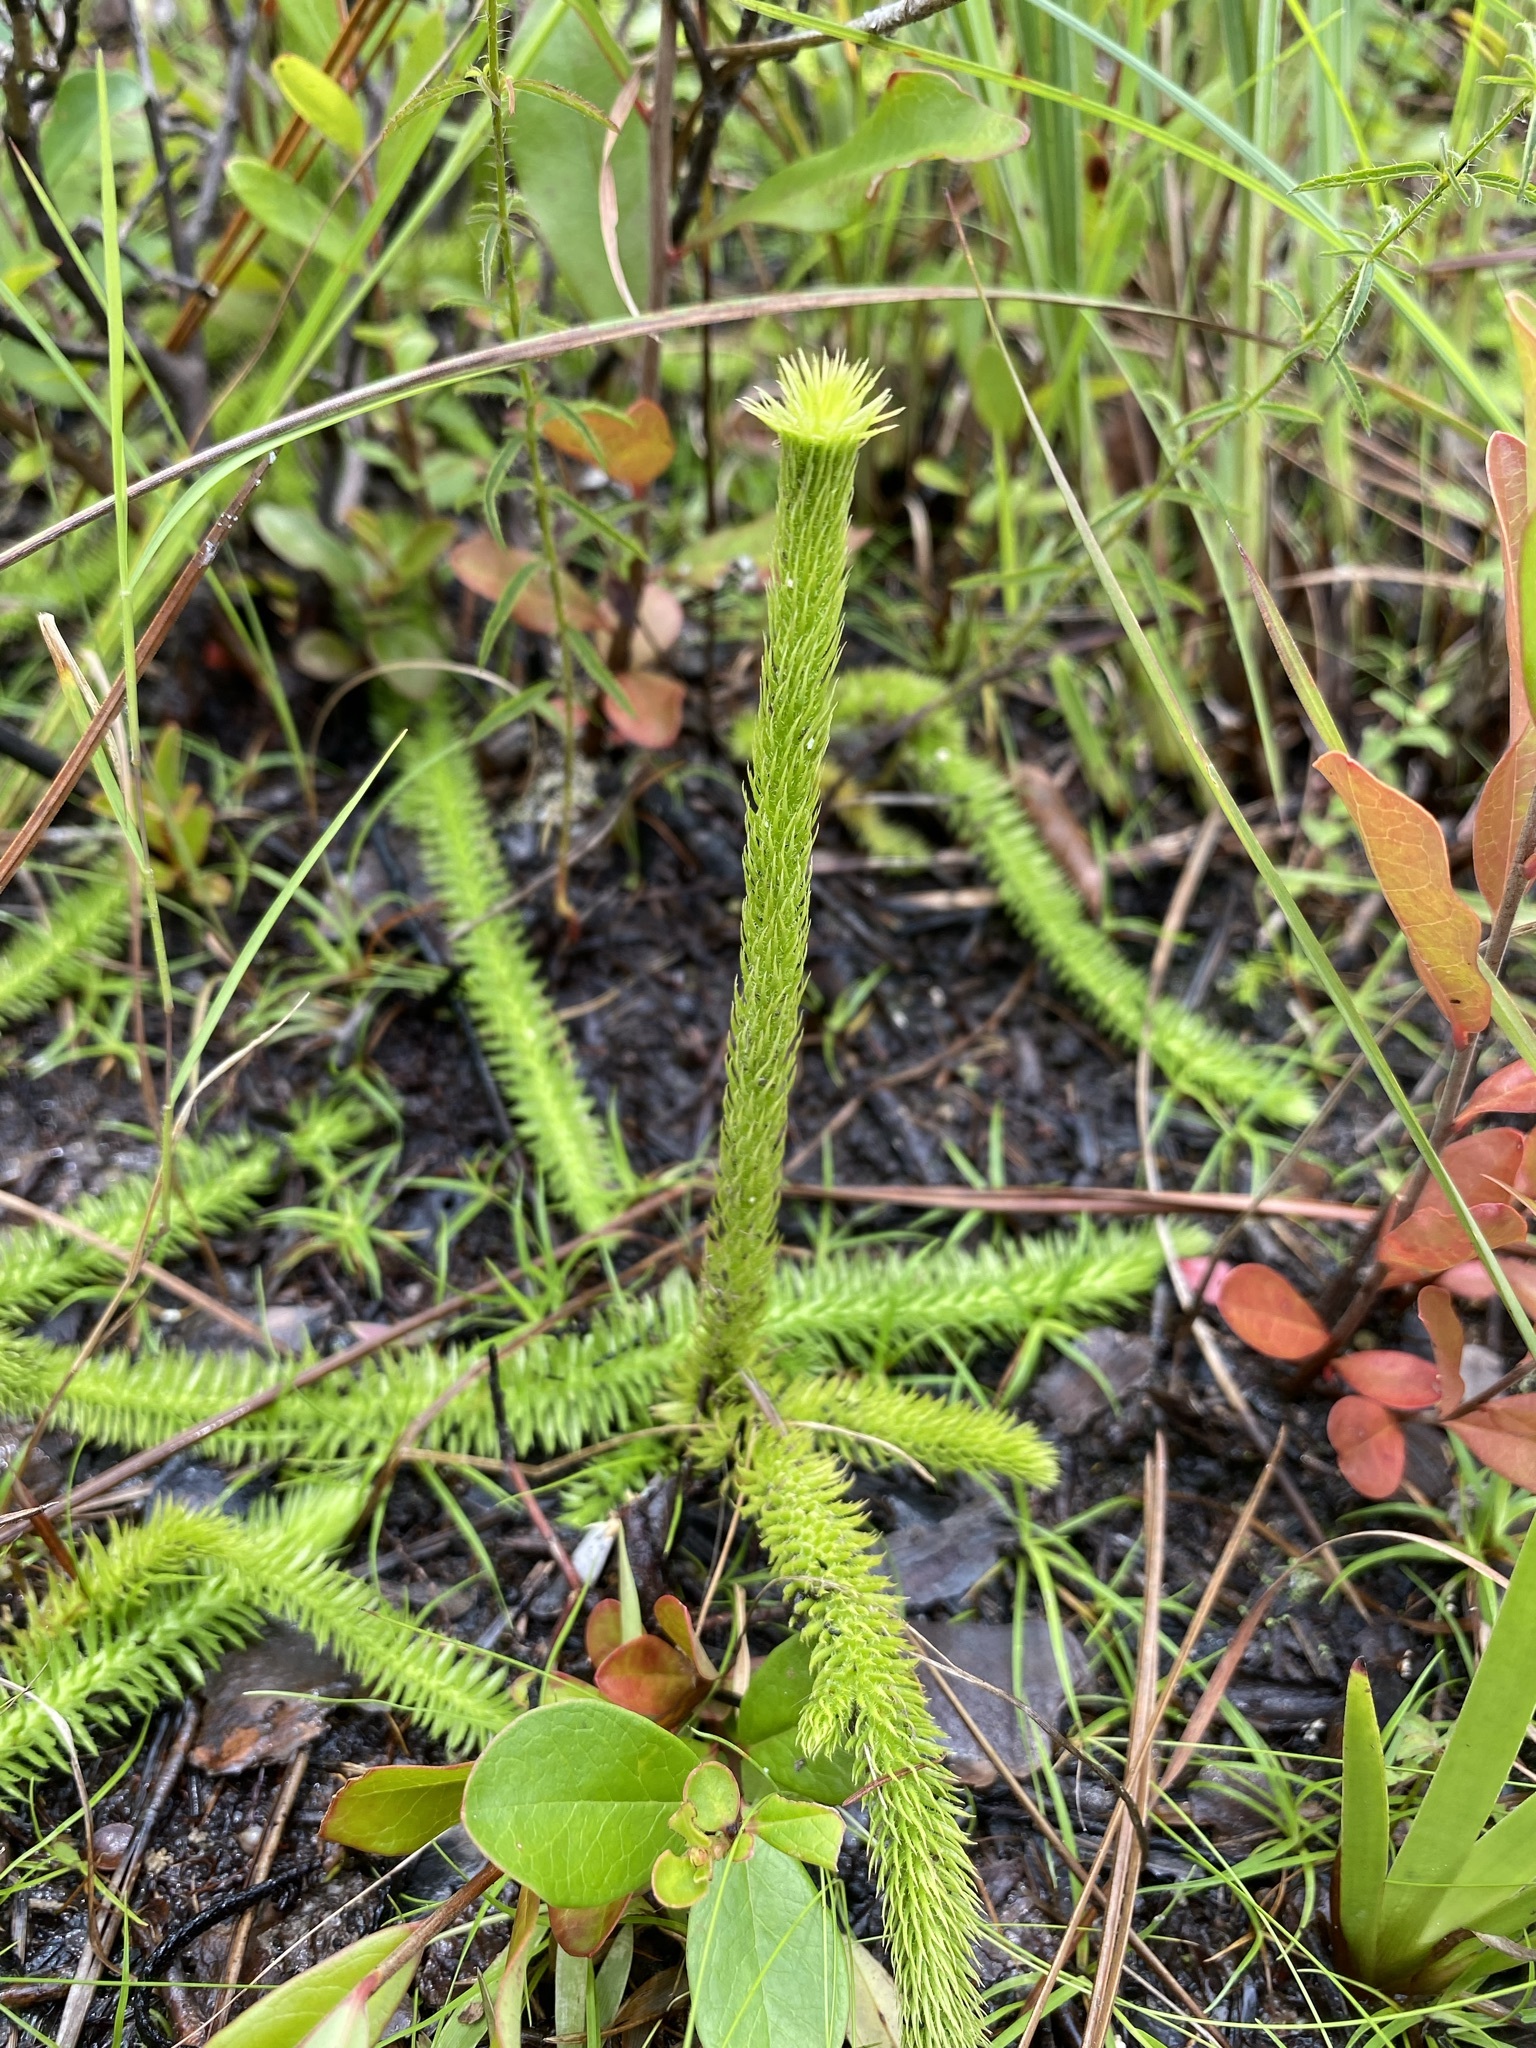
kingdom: Plantae
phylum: Tracheophyta
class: Lycopodiopsida
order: Lycopodiales
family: Lycopodiaceae
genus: Lycopodiella
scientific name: Lycopodiella prostrata
